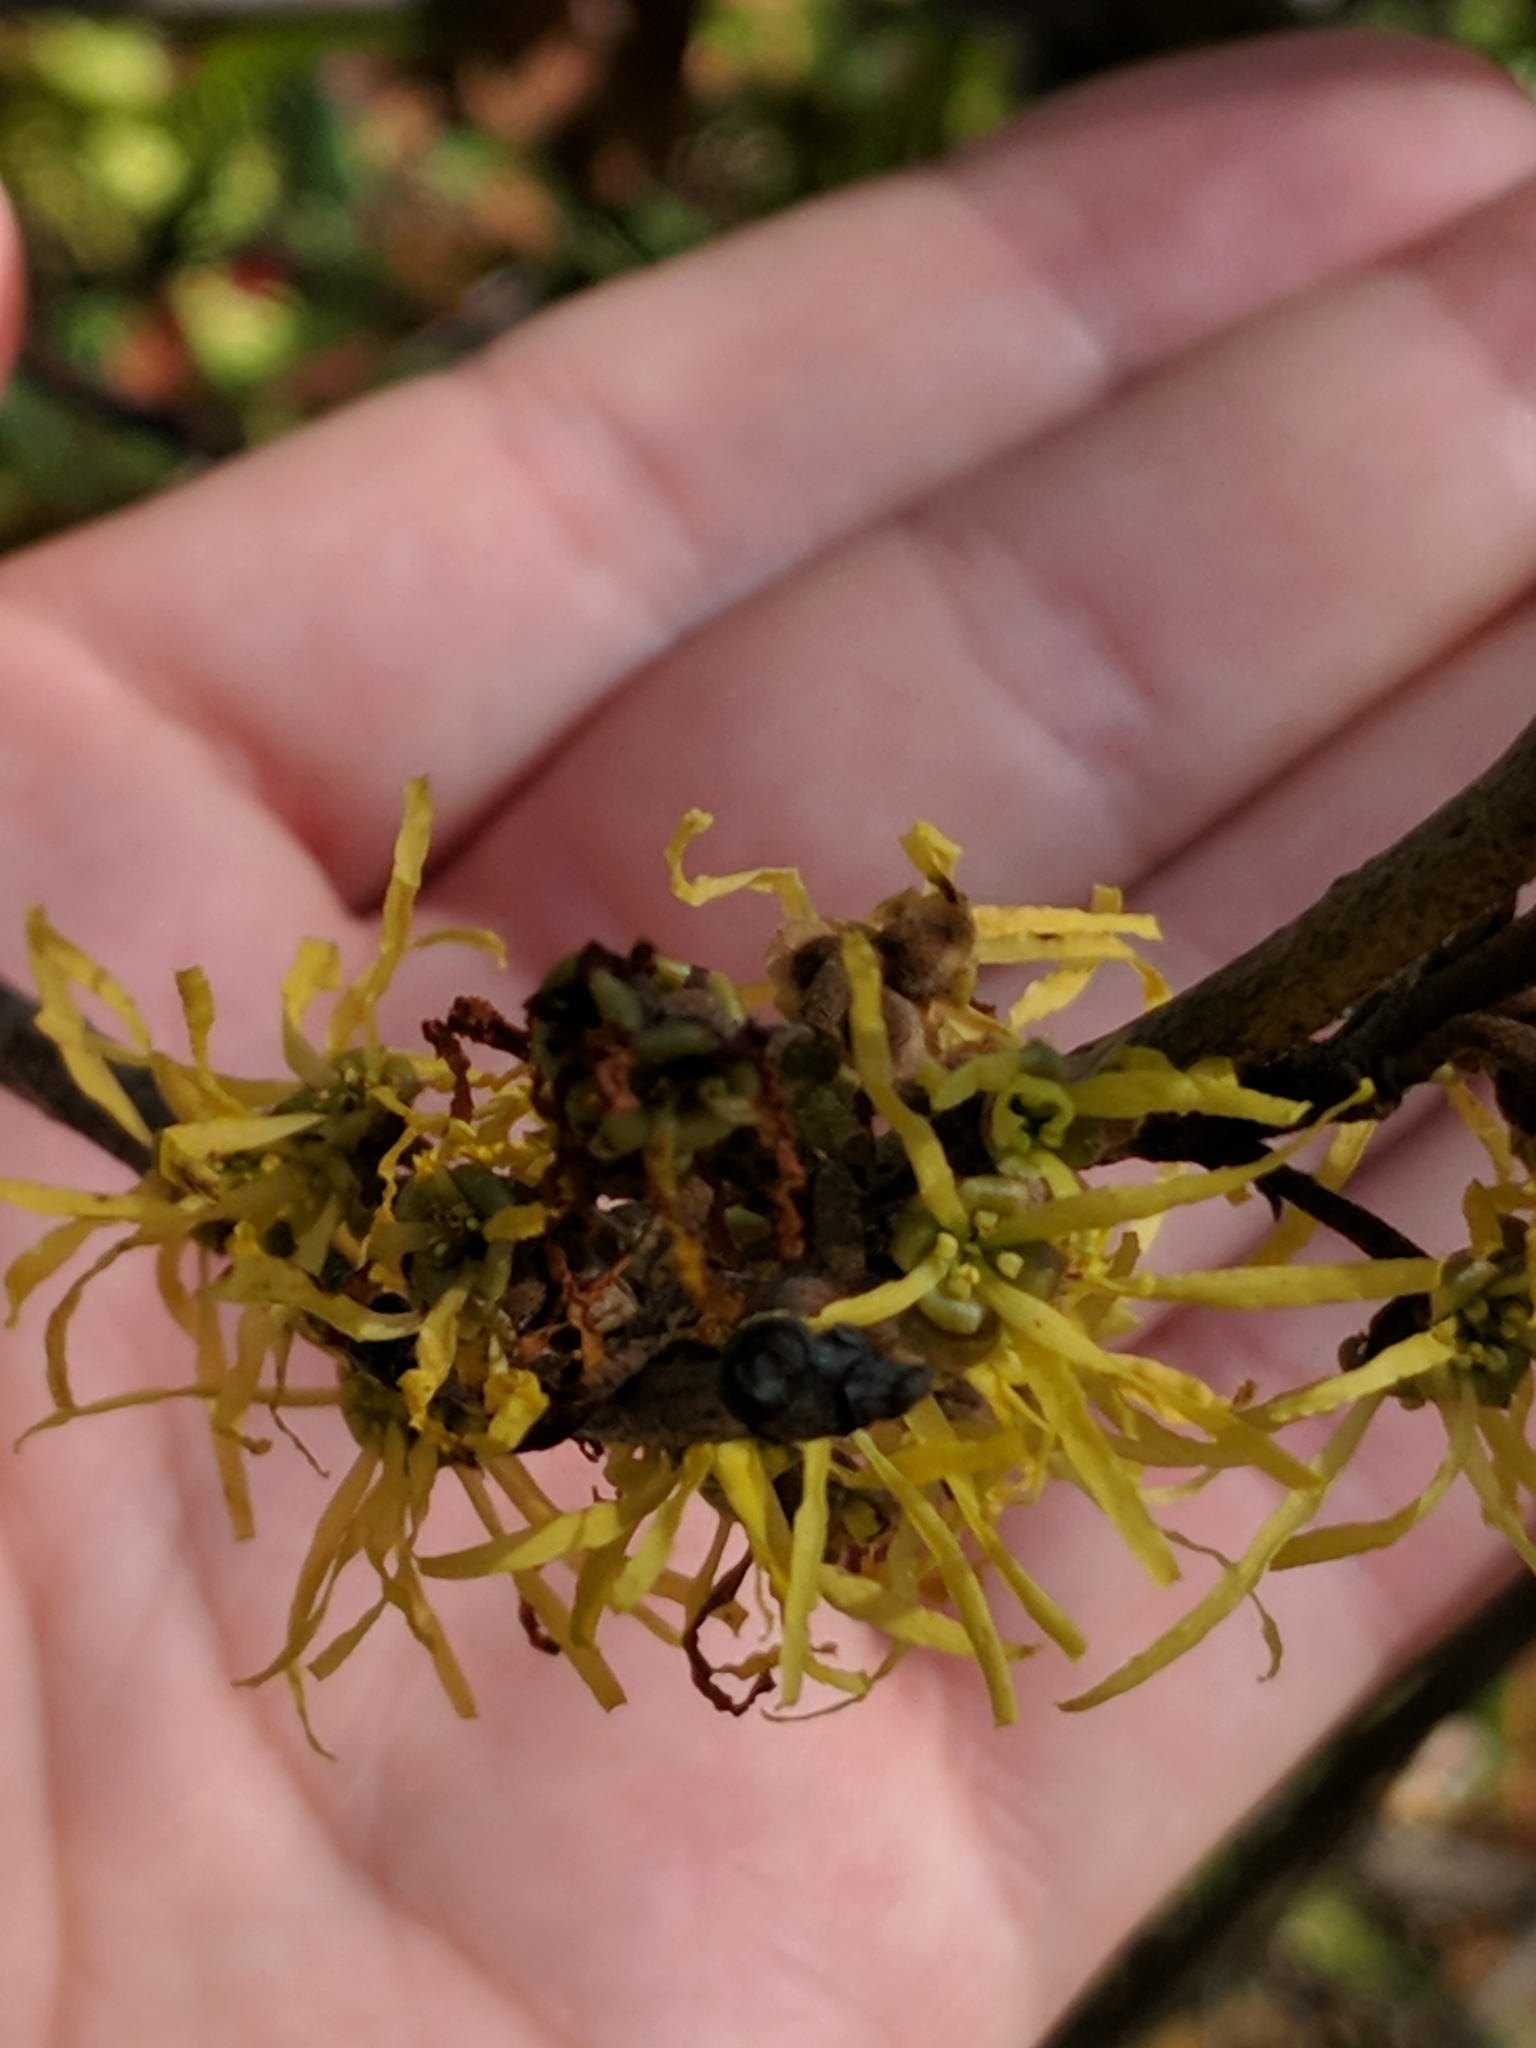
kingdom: Plantae
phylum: Tracheophyta
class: Magnoliopsida
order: Saxifragales
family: Hamamelidaceae
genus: Hamamelis
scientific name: Hamamelis virginiana
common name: Witch-hazel
